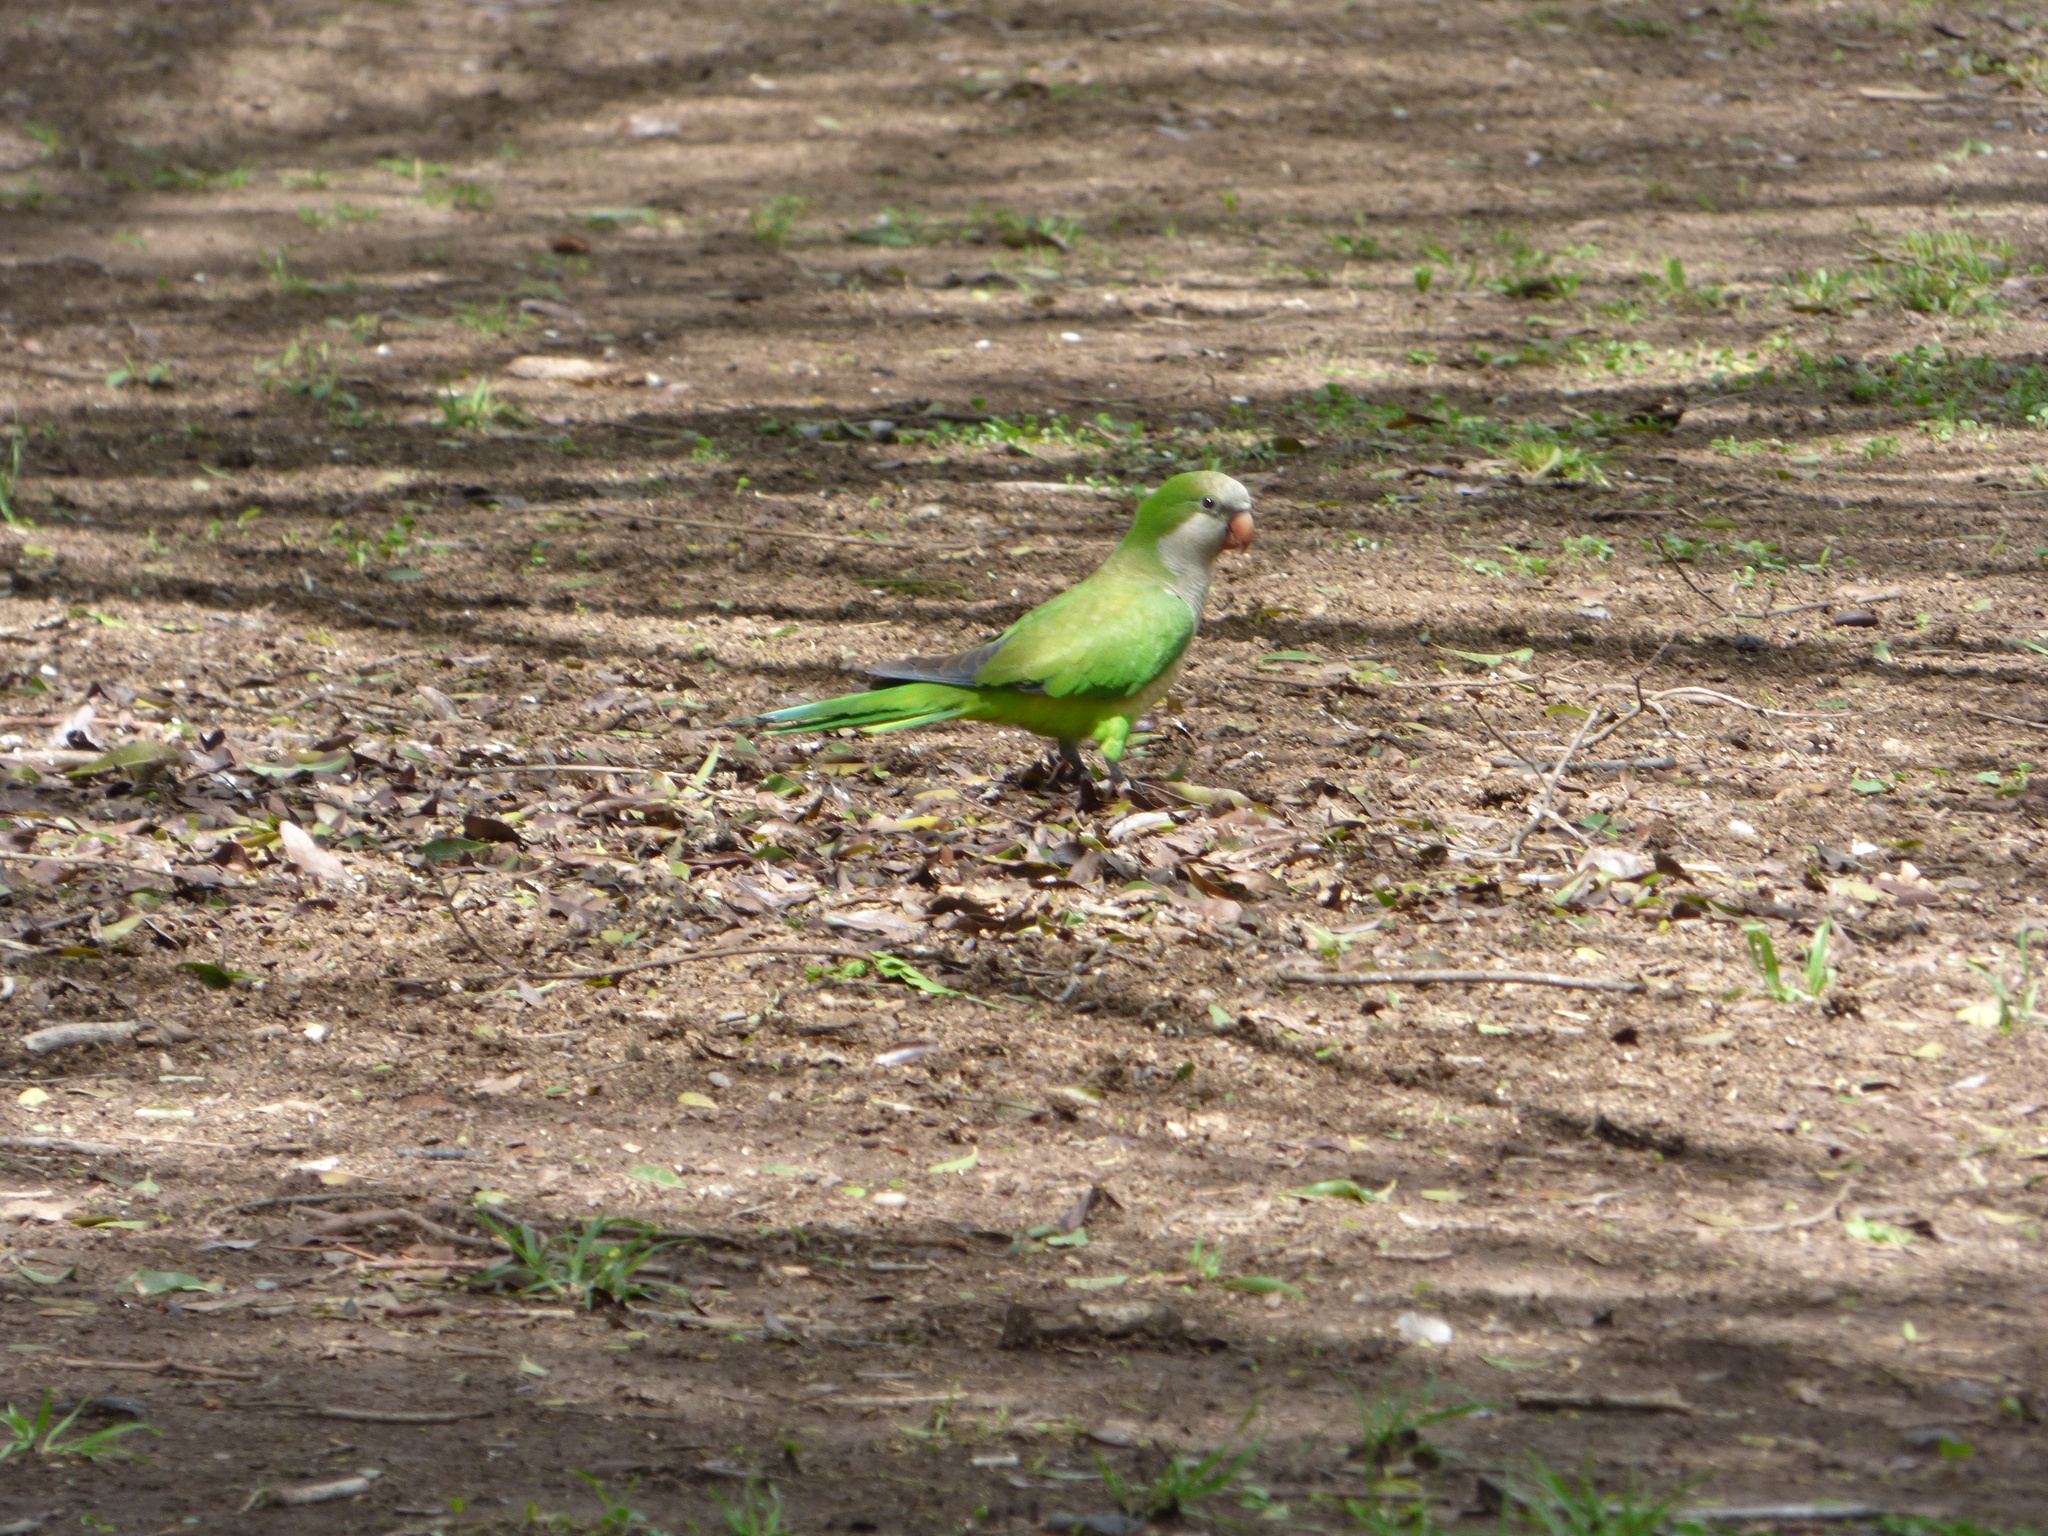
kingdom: Animalia
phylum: Chordata
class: Aves
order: Psittaciformes
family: Psittacidae
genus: Myiopsitta
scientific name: Myiopsitta monachus
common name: Monk parakeet
